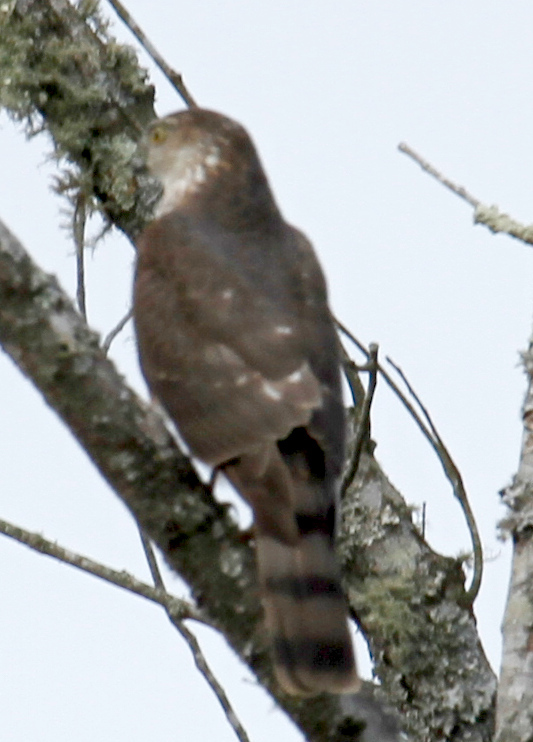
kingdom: Animalia
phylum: Chordata
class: Aves
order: Accipitriformes
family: Accipitridae
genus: Accipiter
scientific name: Accipiter striatus
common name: Sharp-shinned hawk
